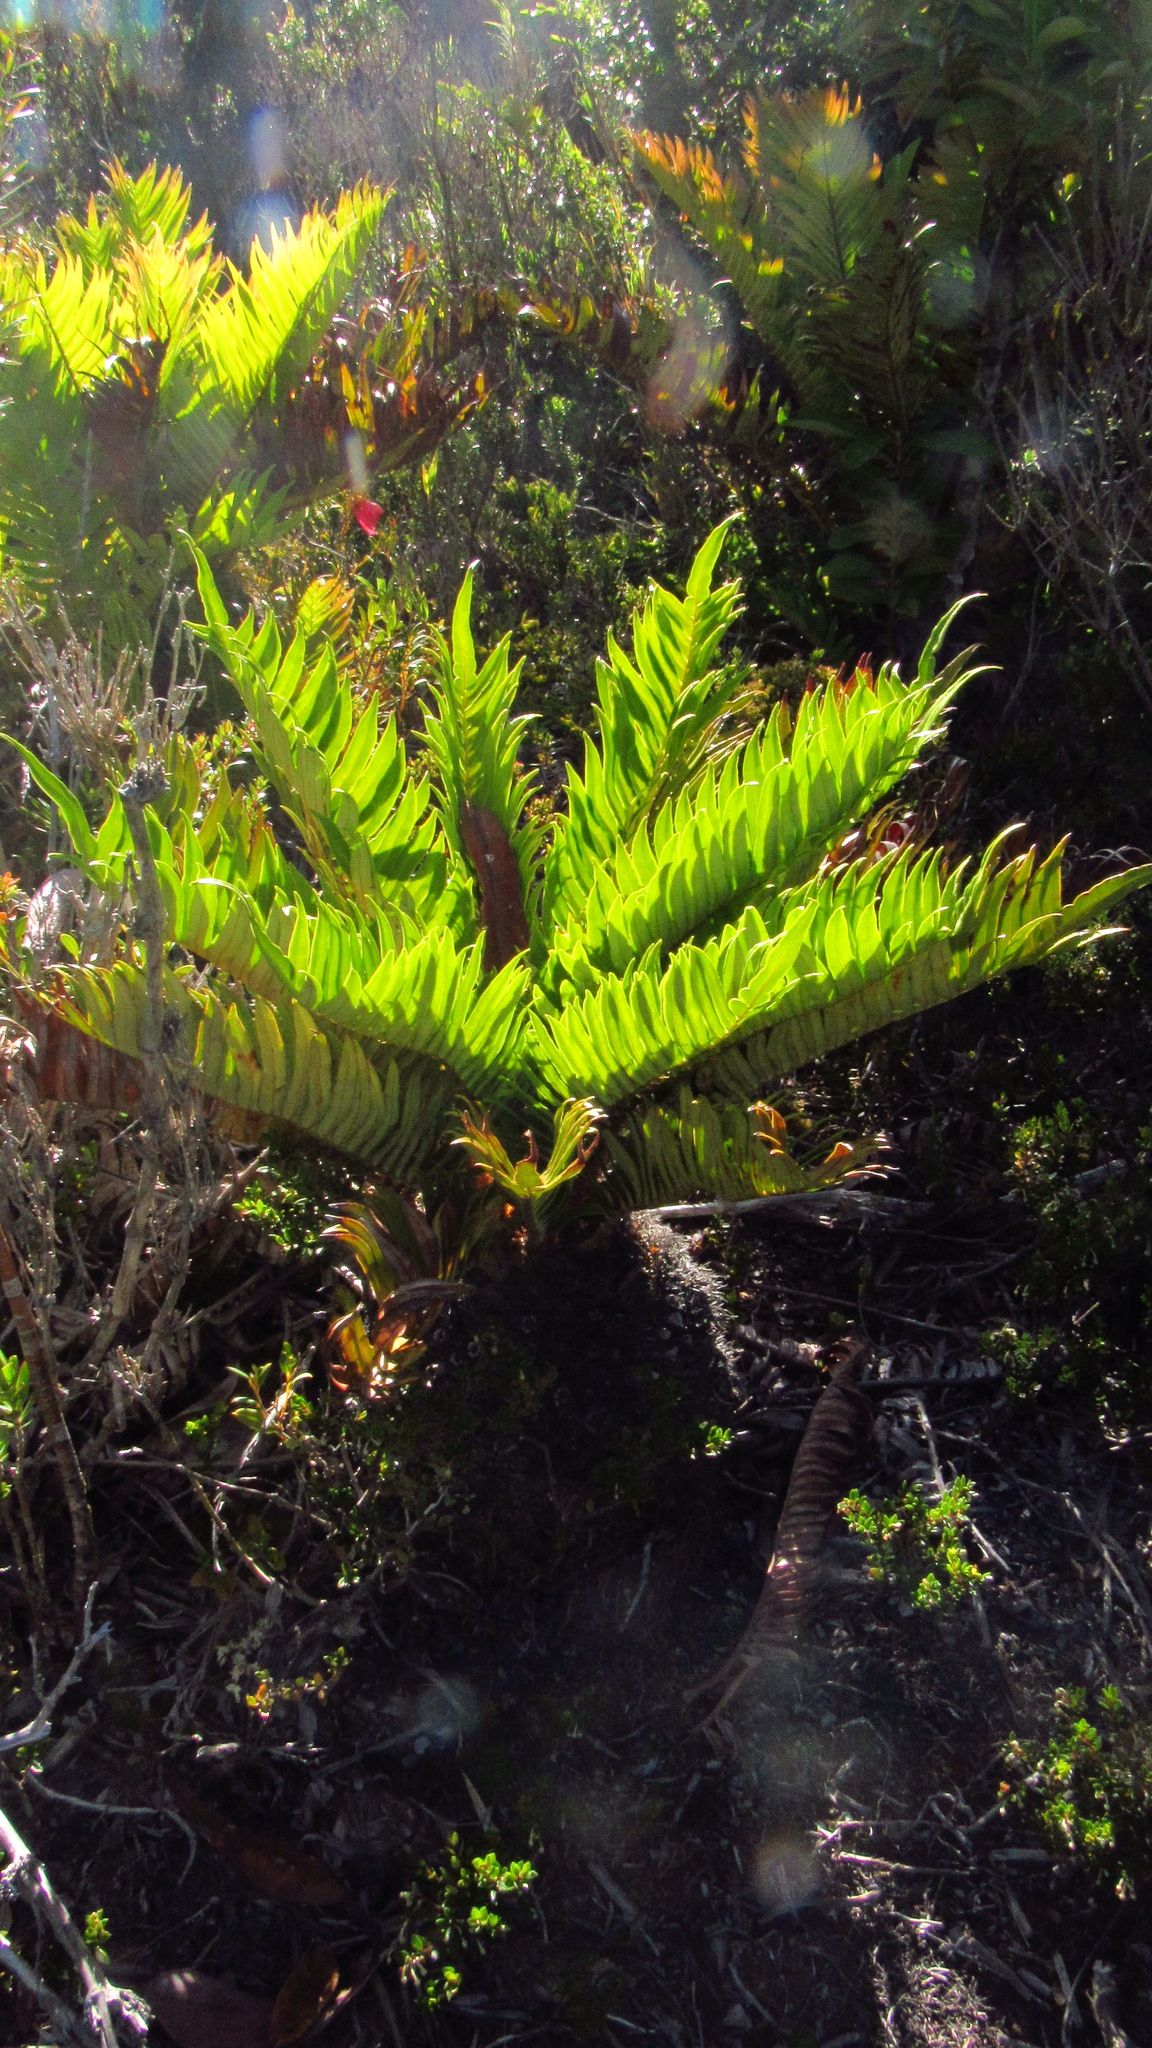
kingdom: Plantae
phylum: Tracheophyta
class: Polypodiopsida
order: Polypodiales
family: Blechnaceae
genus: Lomariocycas
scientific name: Lomariocycas magellanica
